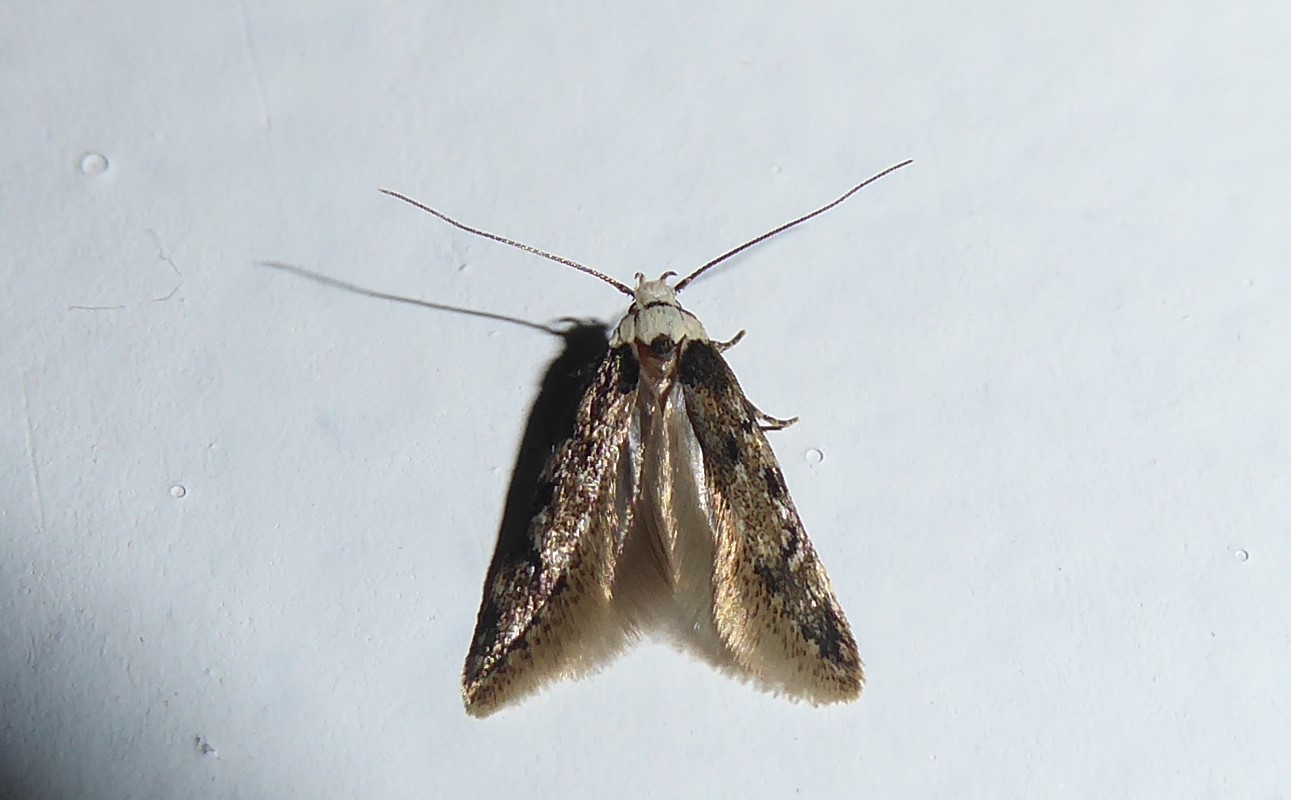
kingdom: Animalia
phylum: Arthropoda
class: Insecta
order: Lepidoptera
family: Oecophoridae
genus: Endrosis
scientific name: Endrosis sarcitrella
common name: White-shouldered house moth
